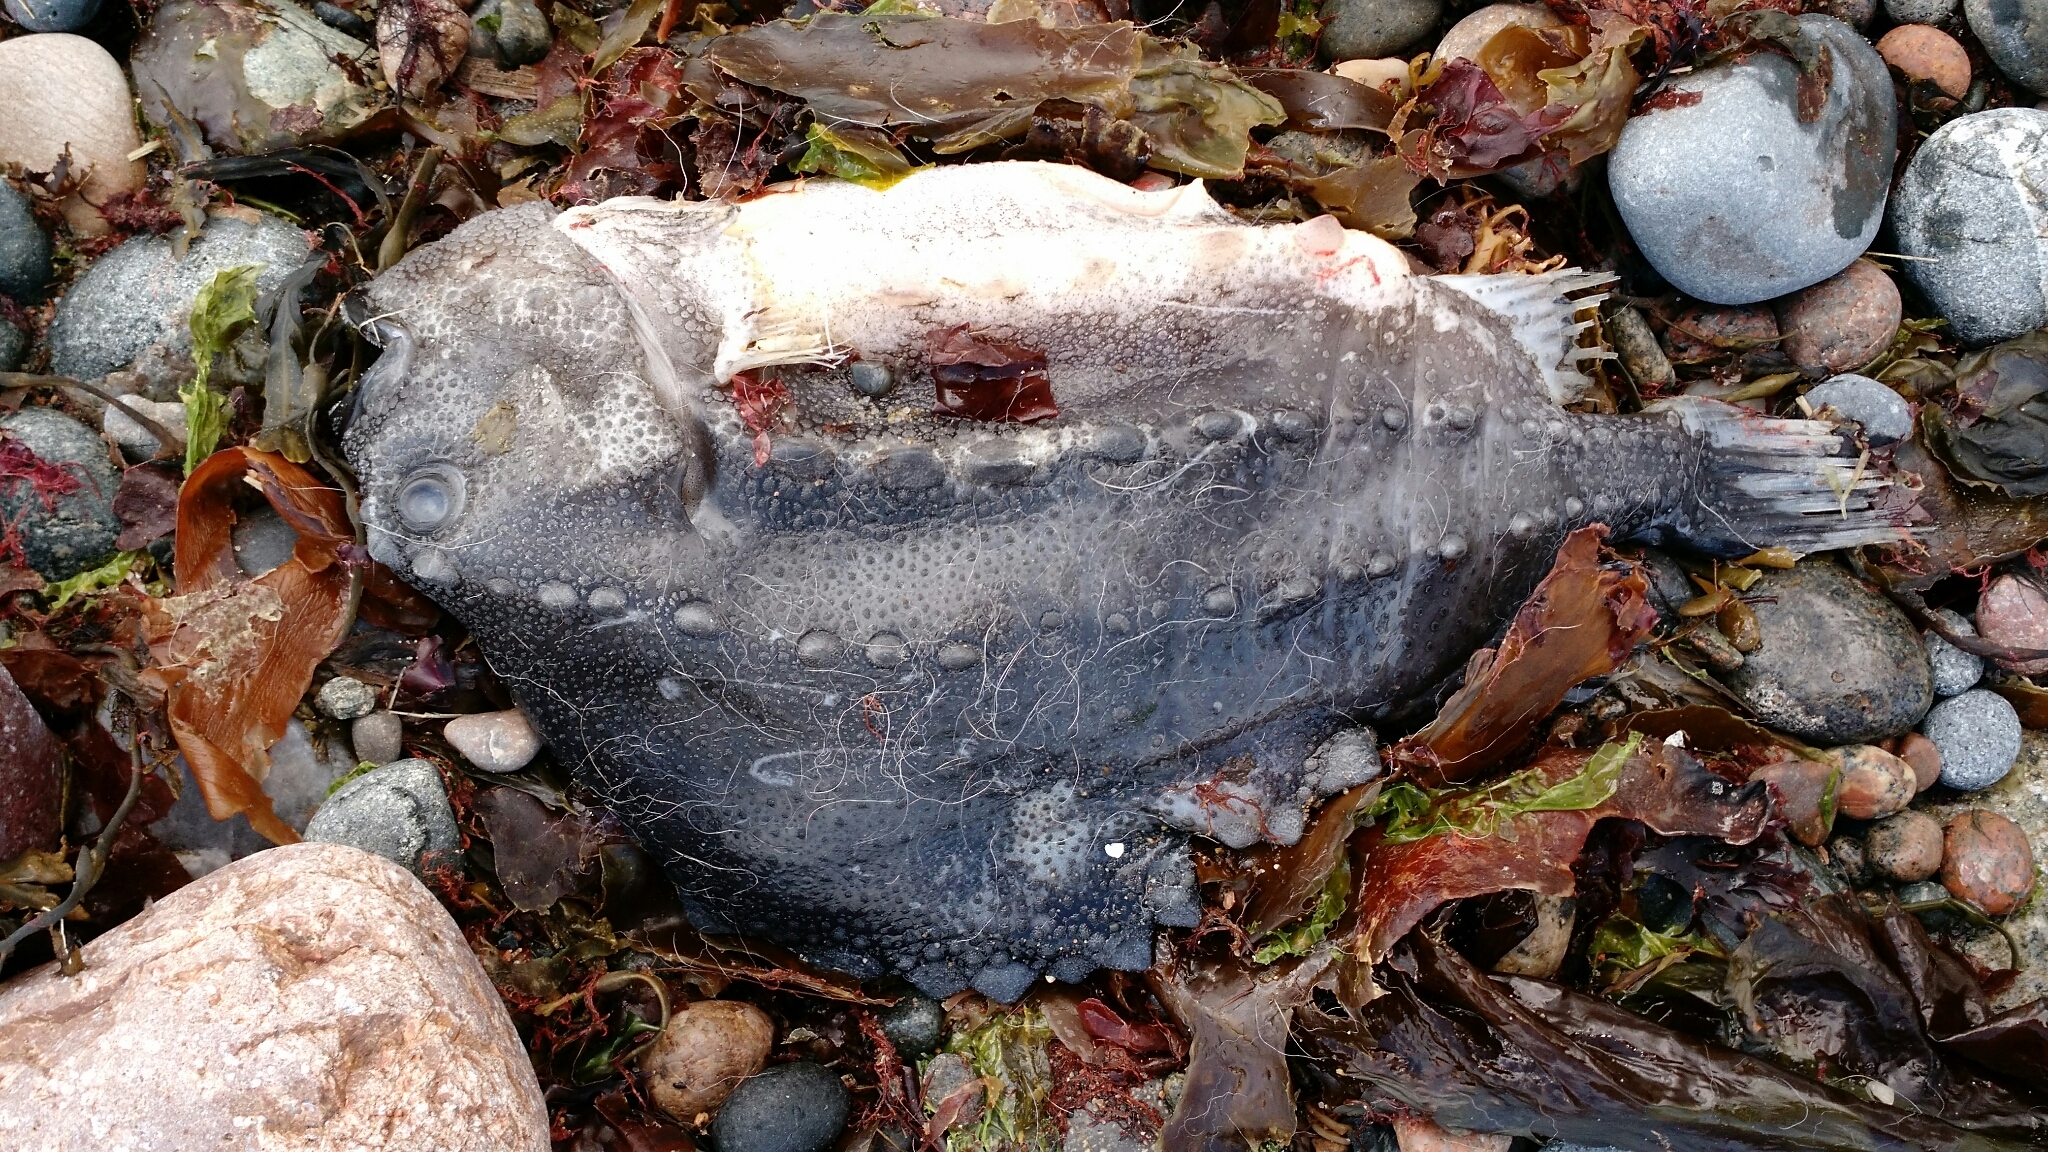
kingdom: Animalia
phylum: Chordata
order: Scorpaeniformes
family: Cyclopteridae
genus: Cyclopterus
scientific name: Cyclopterus lumpus
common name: Lumpsucker
